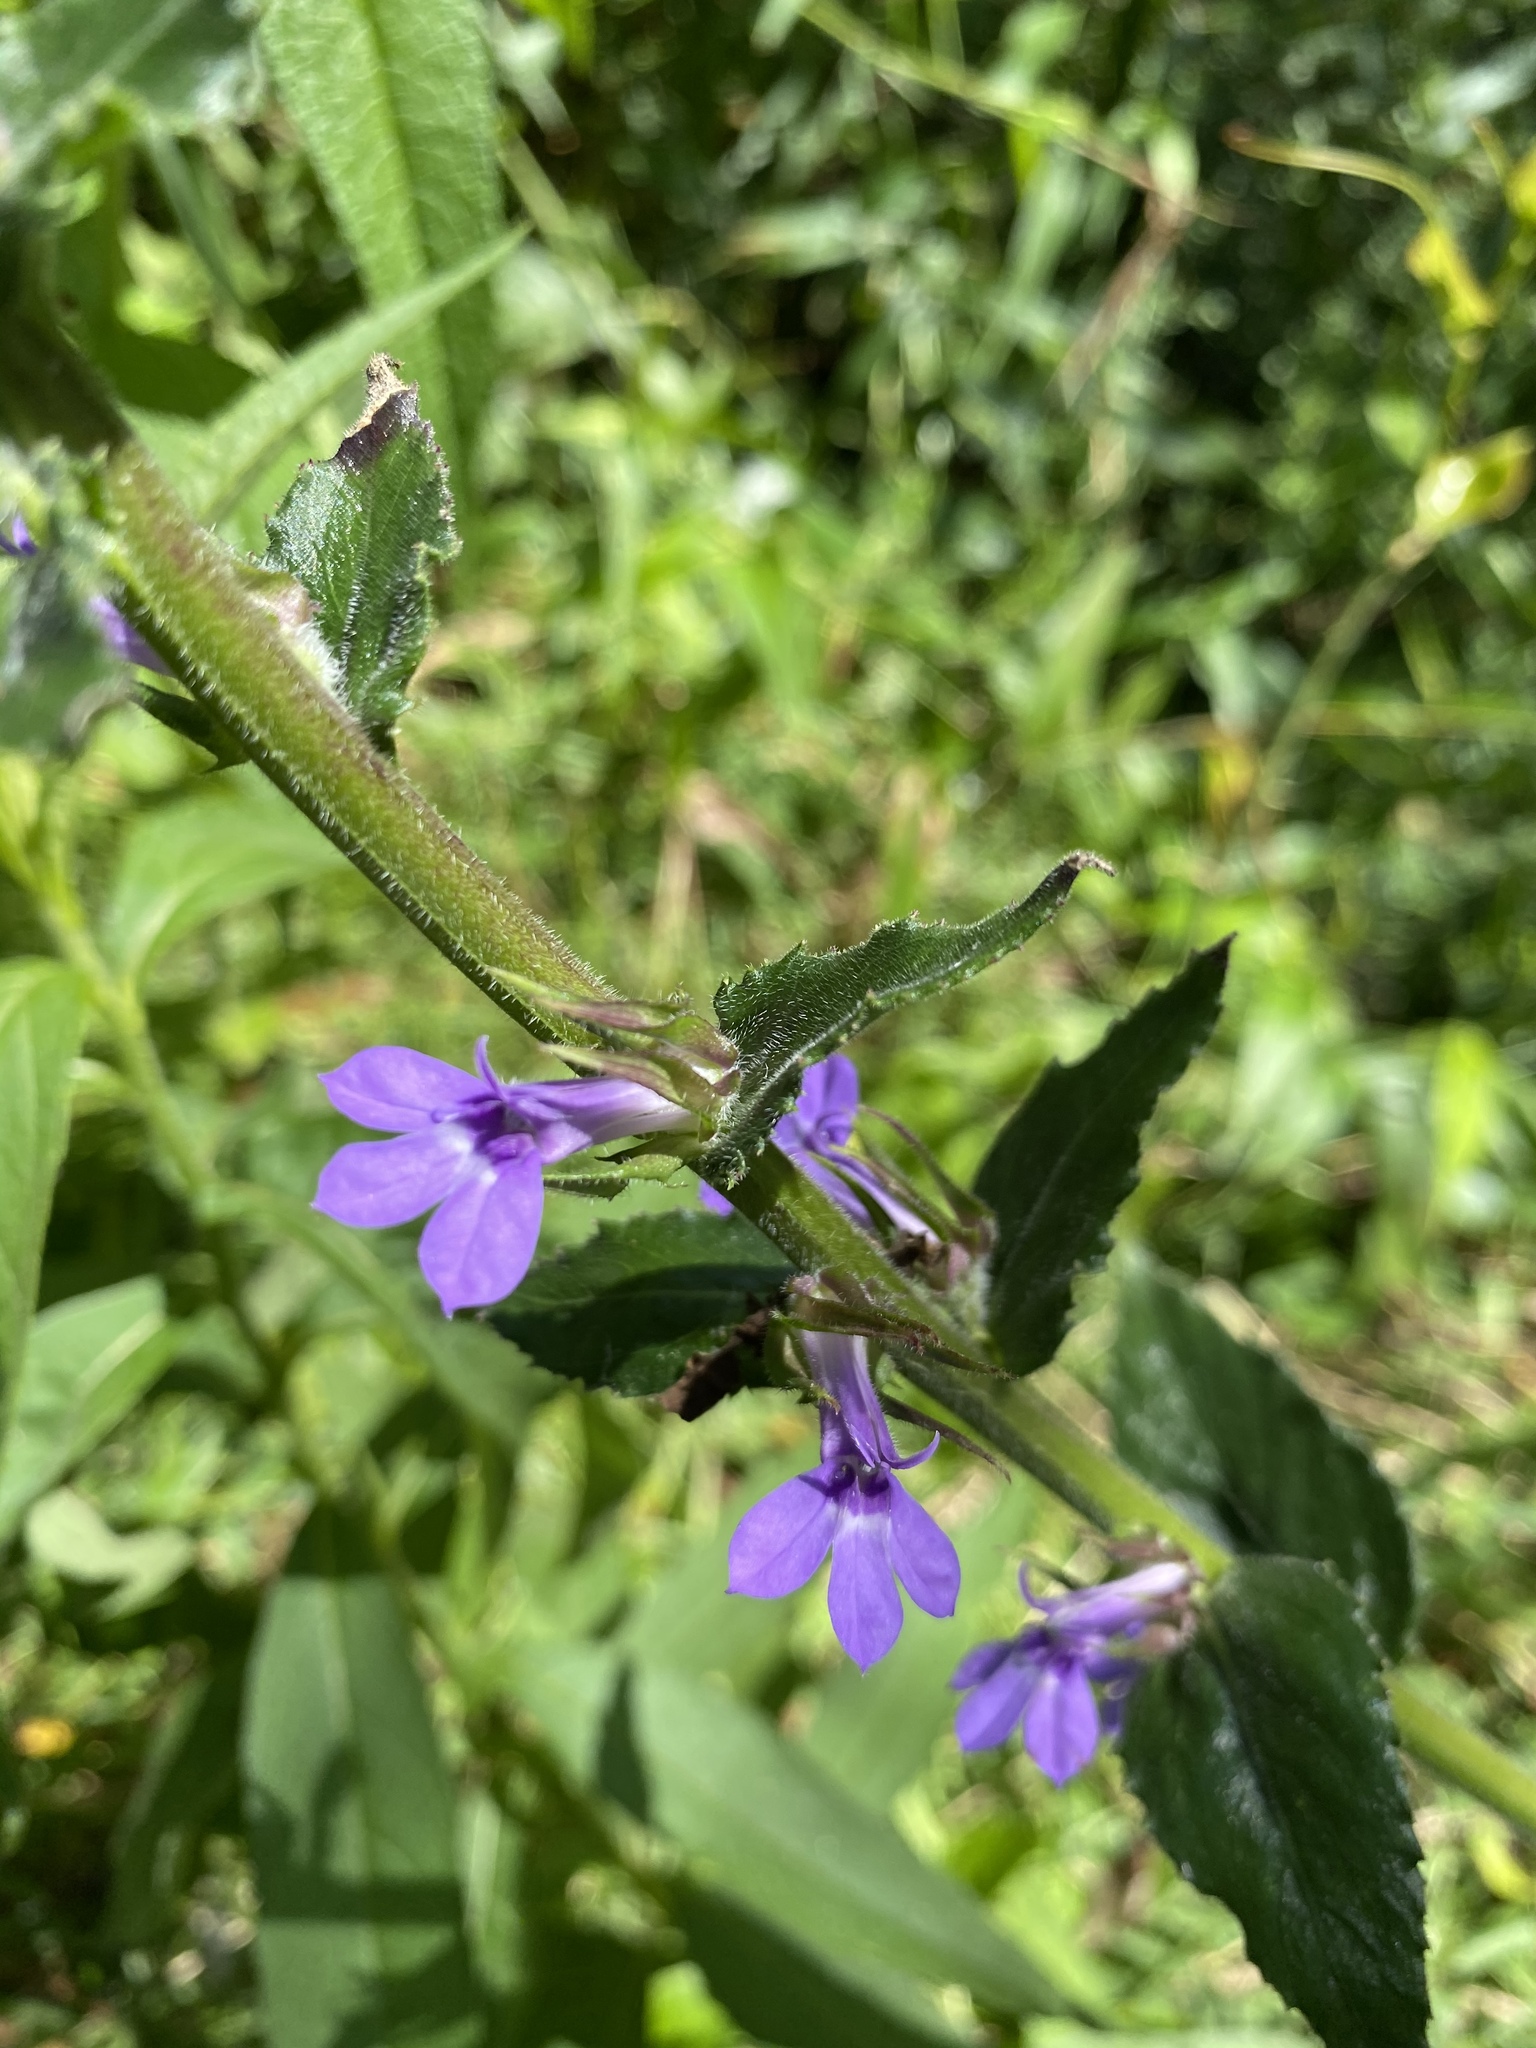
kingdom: Plantae
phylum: Tracheophyta
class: Magnoliopsida
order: Asterales
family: Campanulaceae
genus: Lobelia
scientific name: Lobelia puberula
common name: Purple dewdrop
